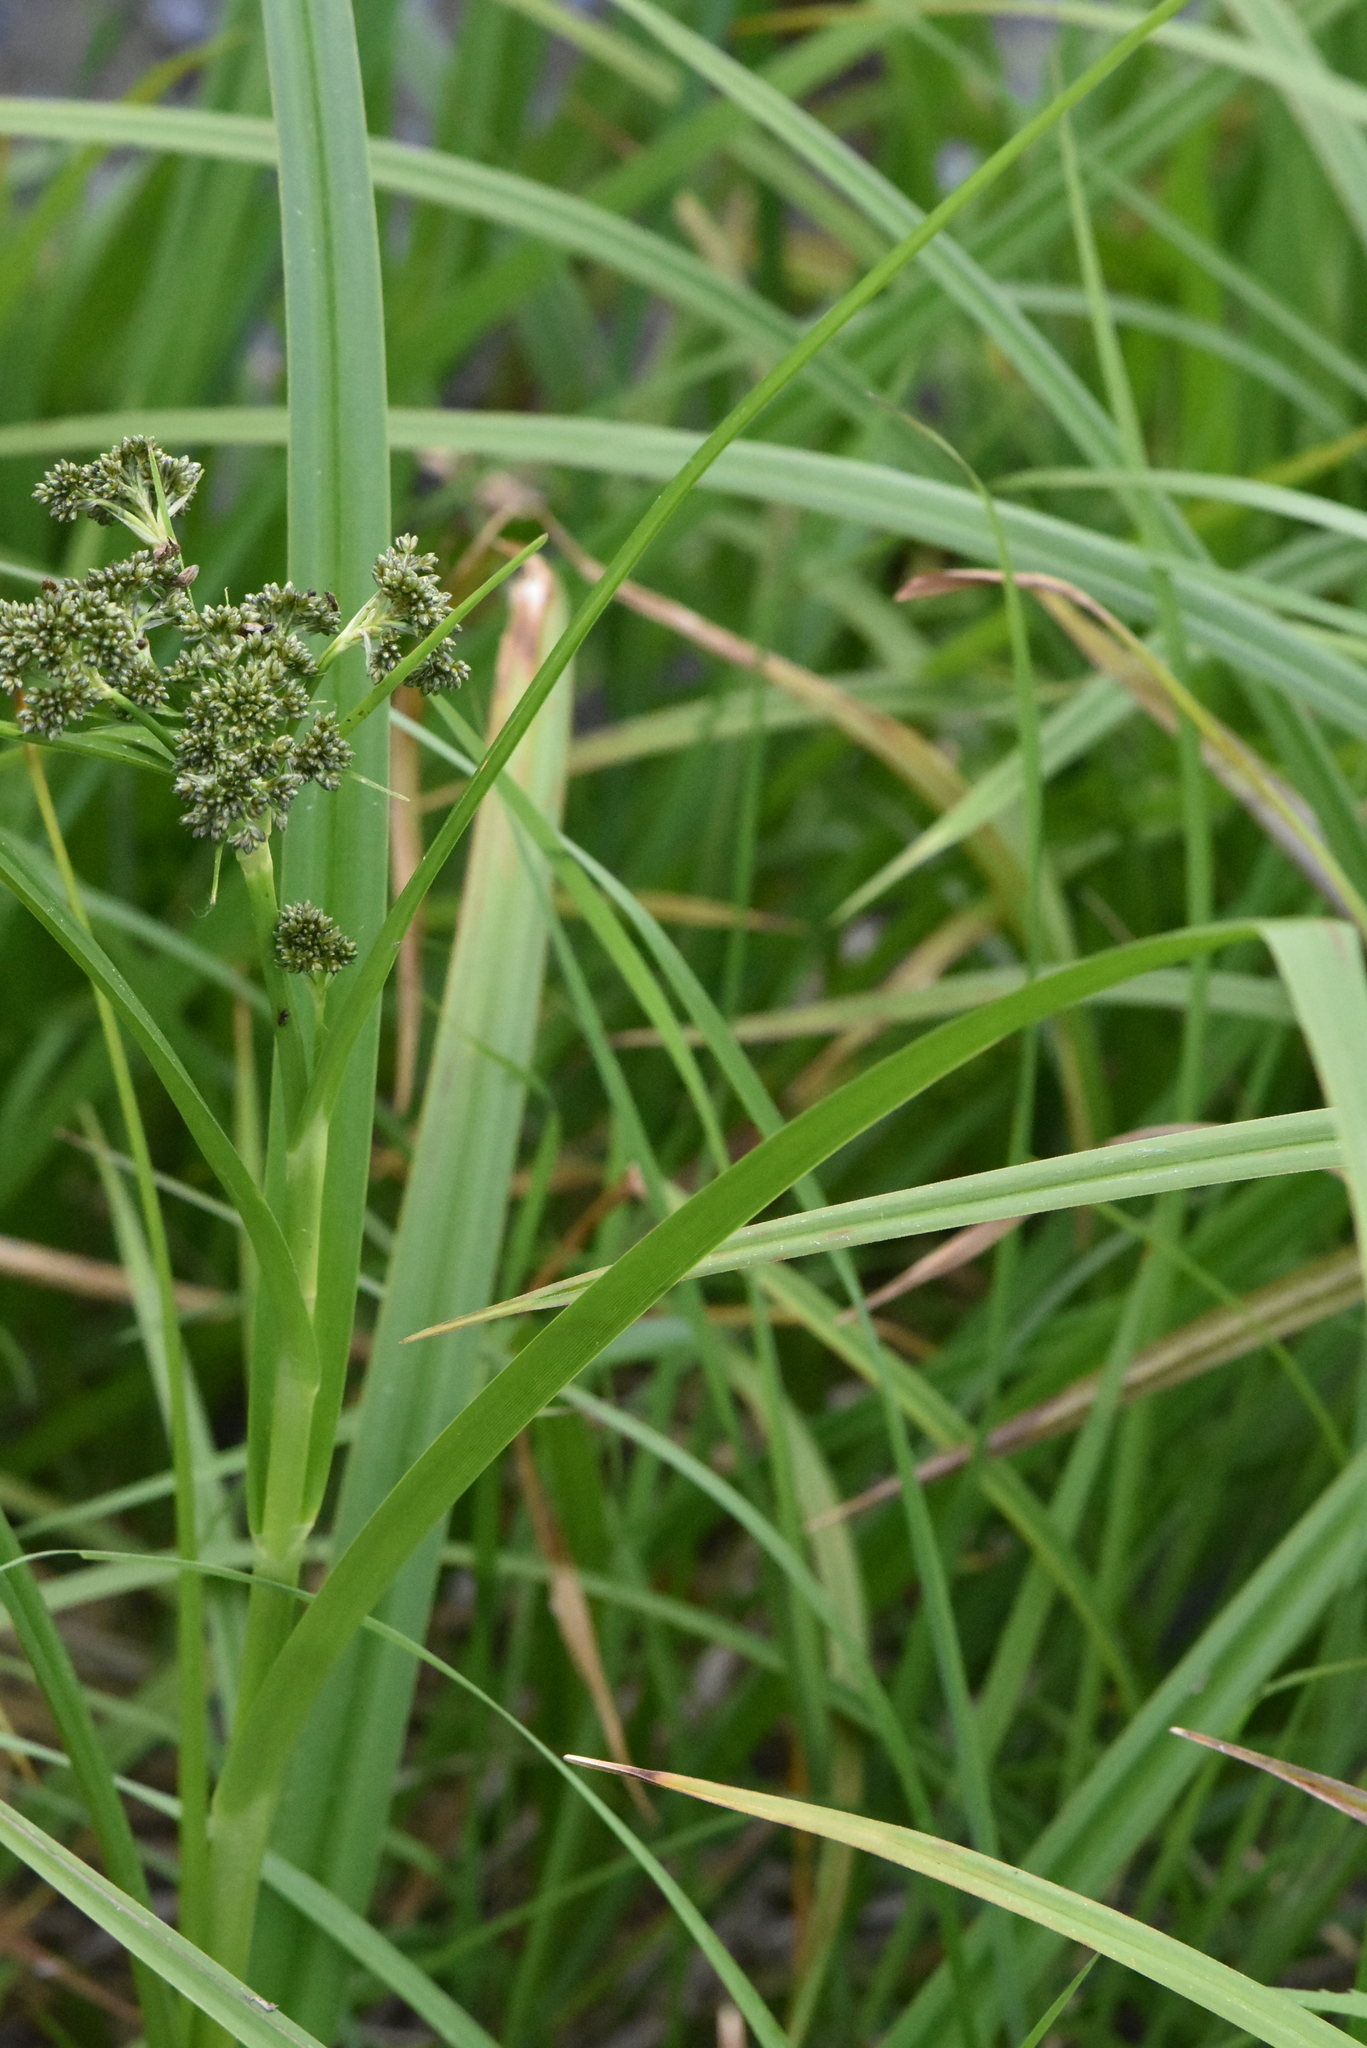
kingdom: Plantae
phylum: Tracheophyta
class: Liliopsida
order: Poales
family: Cyperaceae
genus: Scirpus
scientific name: Scirpus sylvaticus
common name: Wood club-rush
